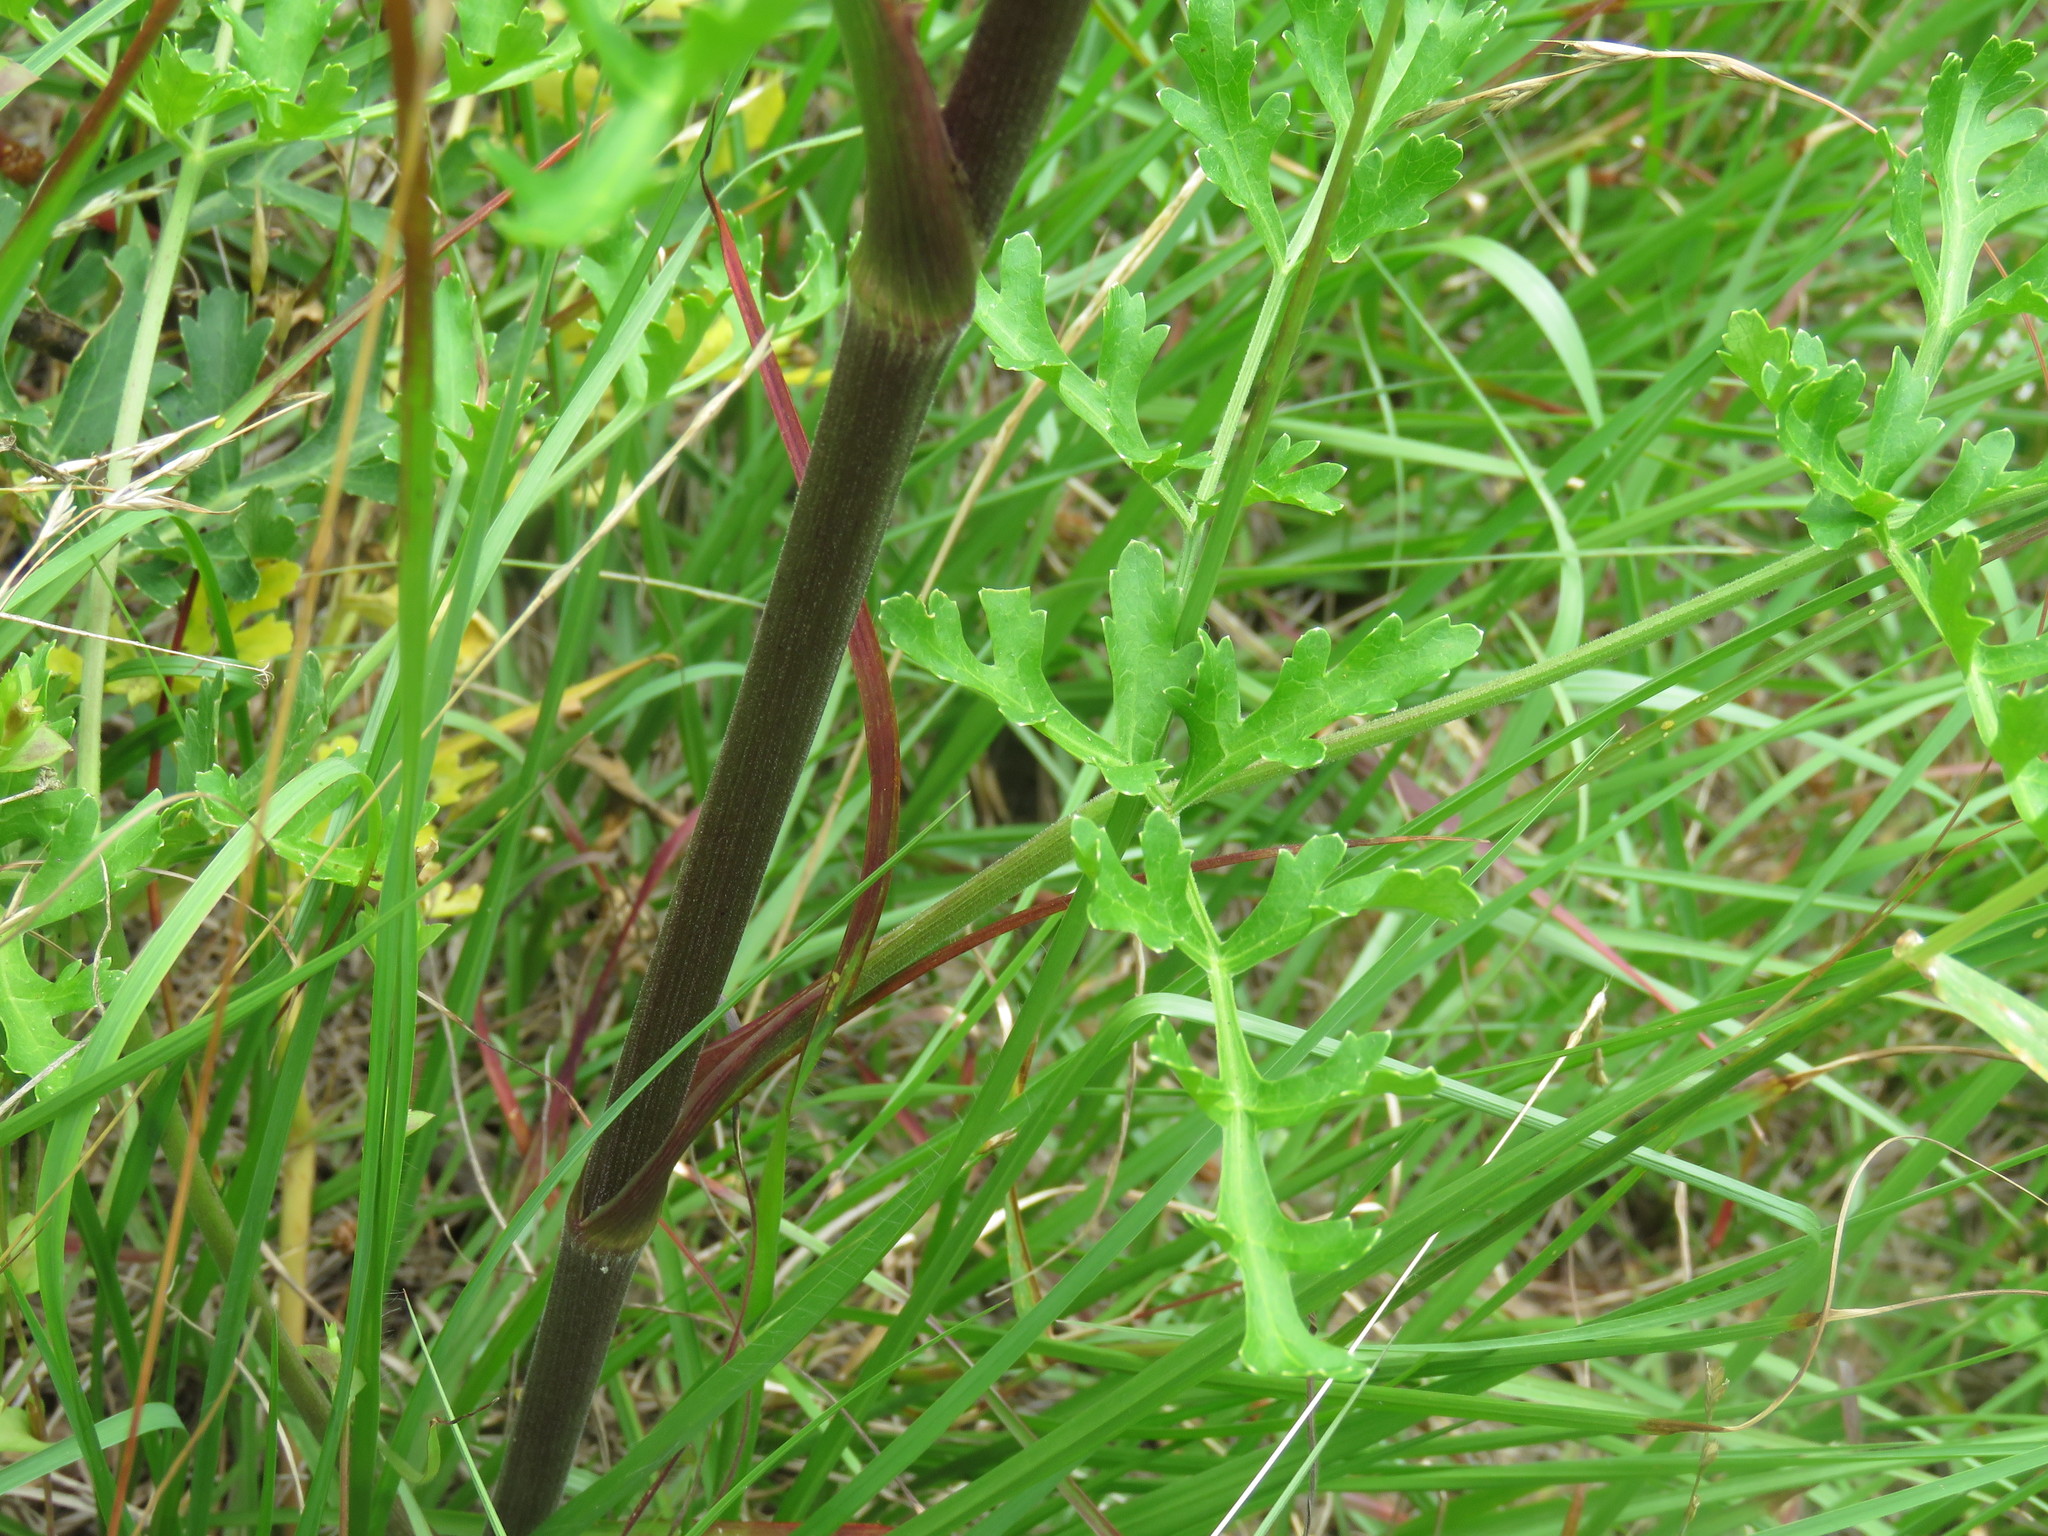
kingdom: Plantae
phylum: Tracheophyta
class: Magnoliopsida
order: Apiales
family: Apiaceae
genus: Polytaenia
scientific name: Polytaenia texana
